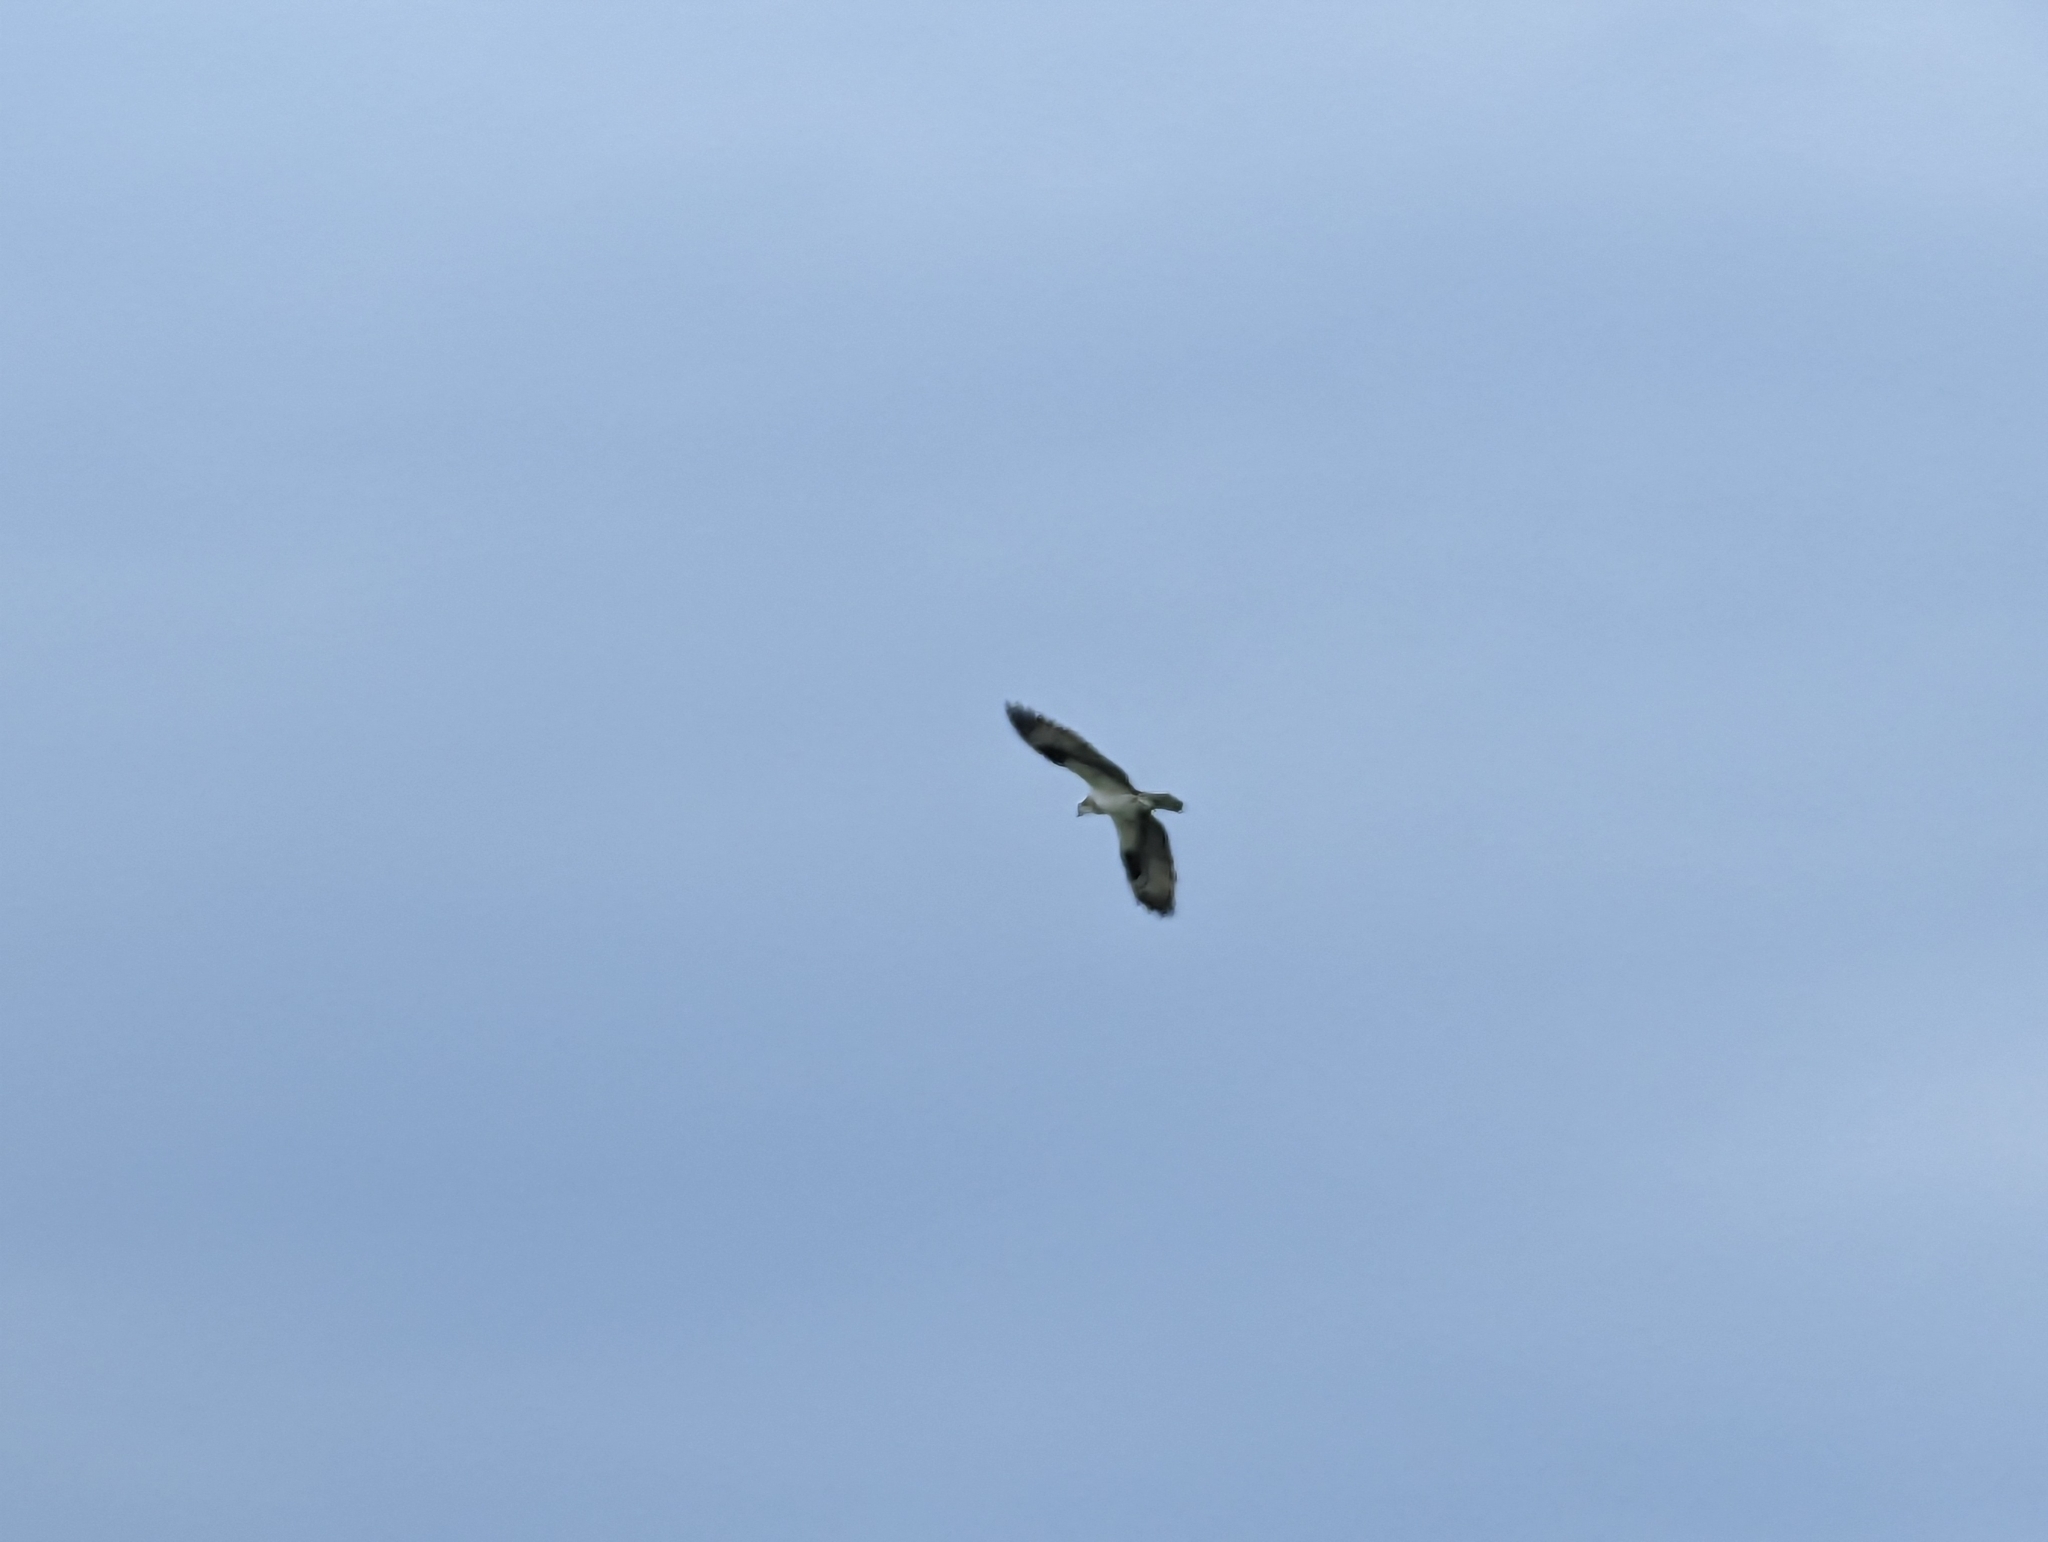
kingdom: Animalia
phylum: Chordata
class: Aves
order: Accipitriformes
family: Pandionidae
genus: Pandion
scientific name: Pandion haliaetus
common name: Osprey
